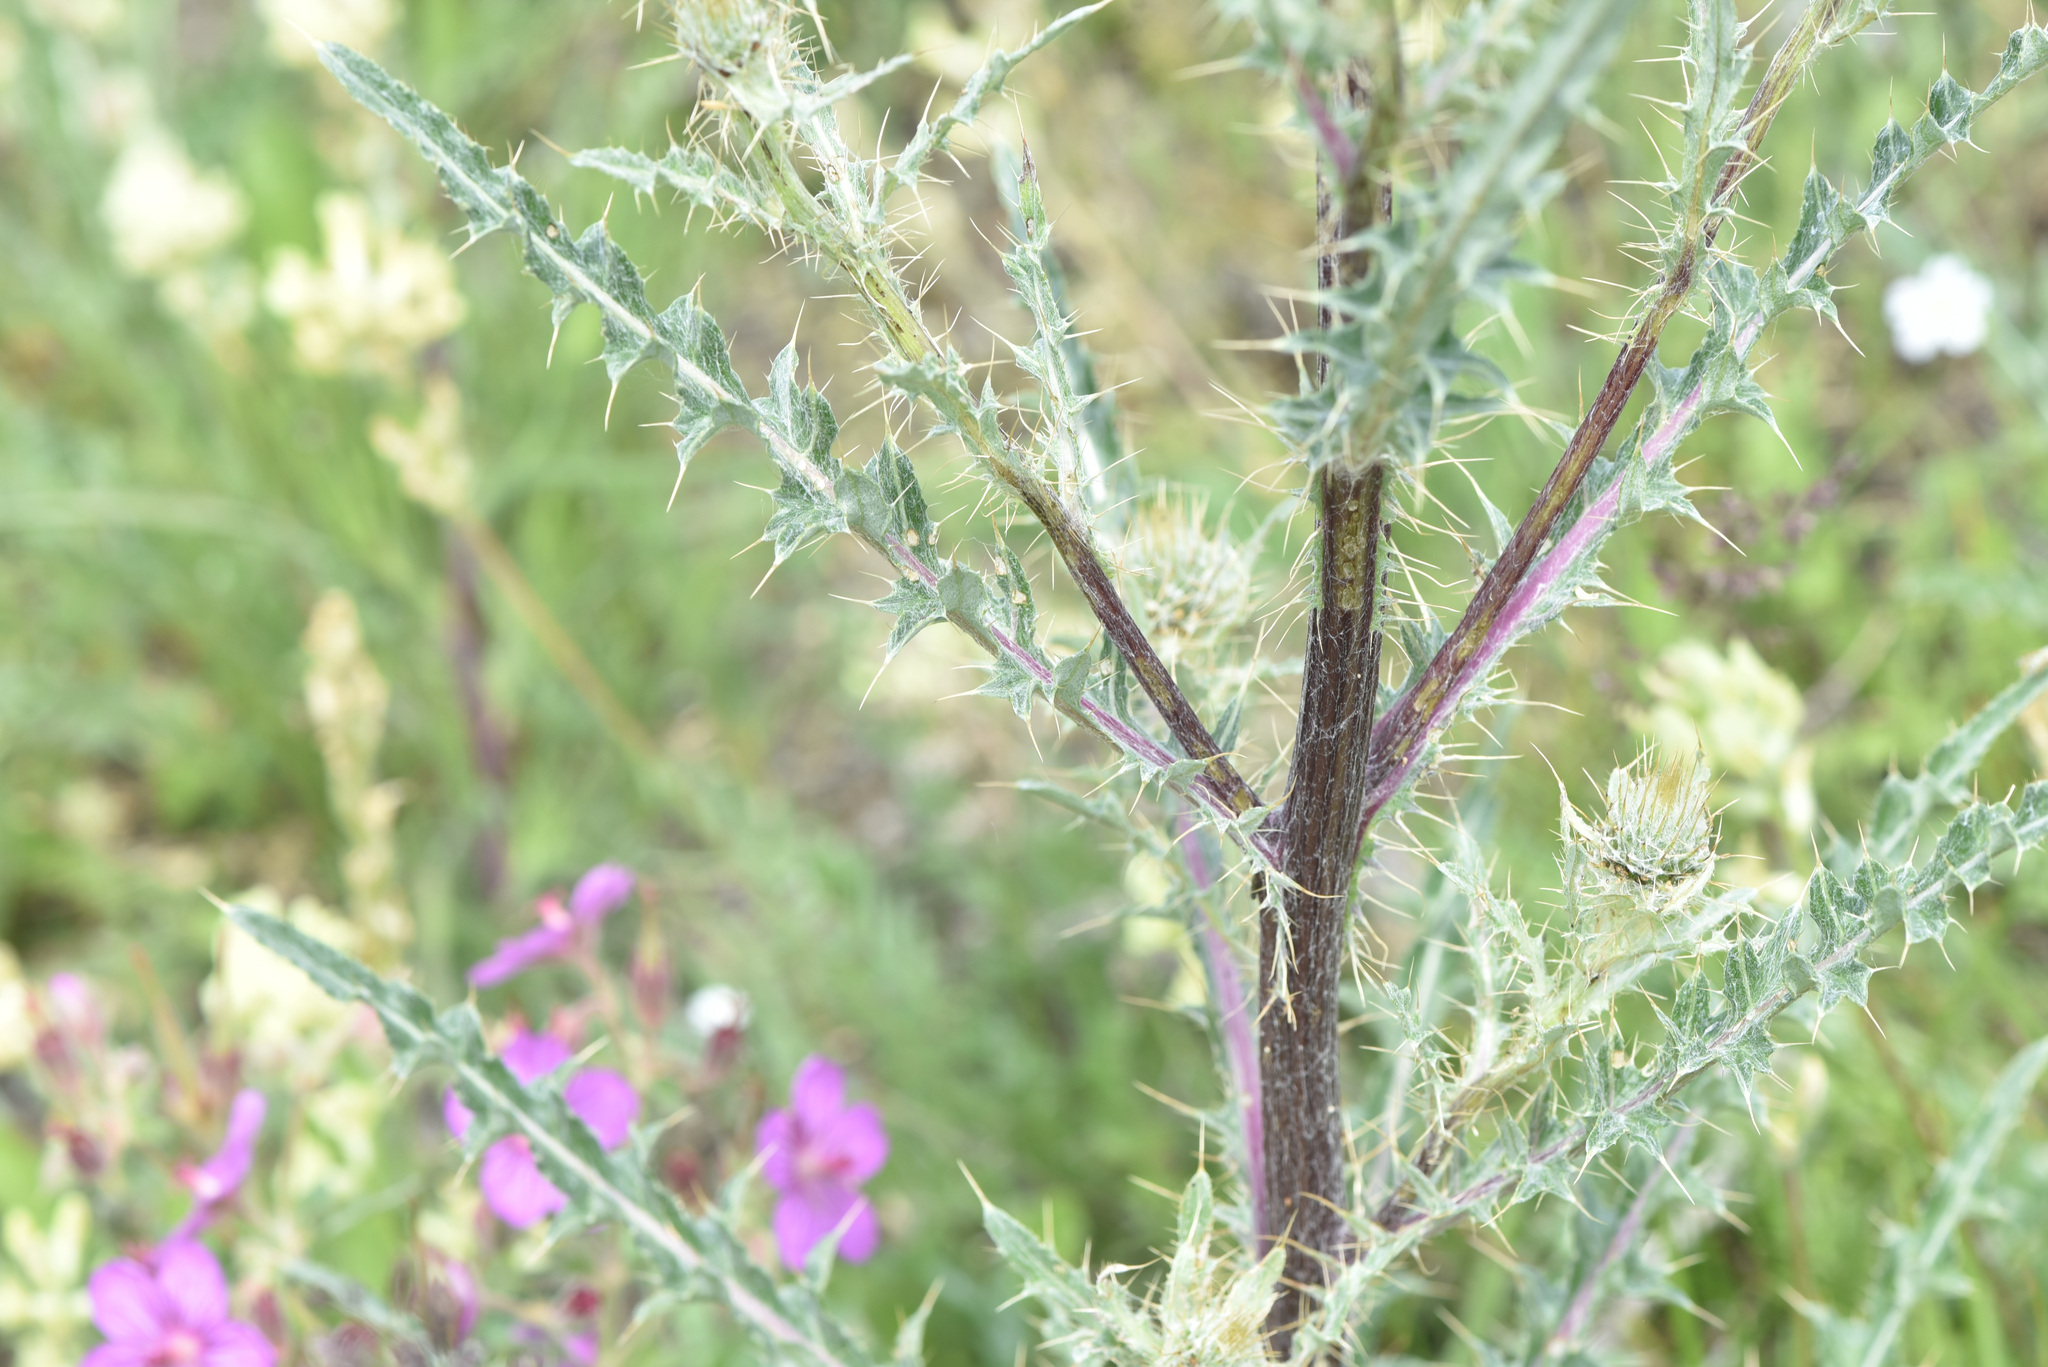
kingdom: Plantae
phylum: Tracheophyta
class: Magnoliopsida
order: Asterales
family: Asteraceae
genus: Cirsium
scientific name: Cirsium hookerianum
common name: Hooker's thistle
